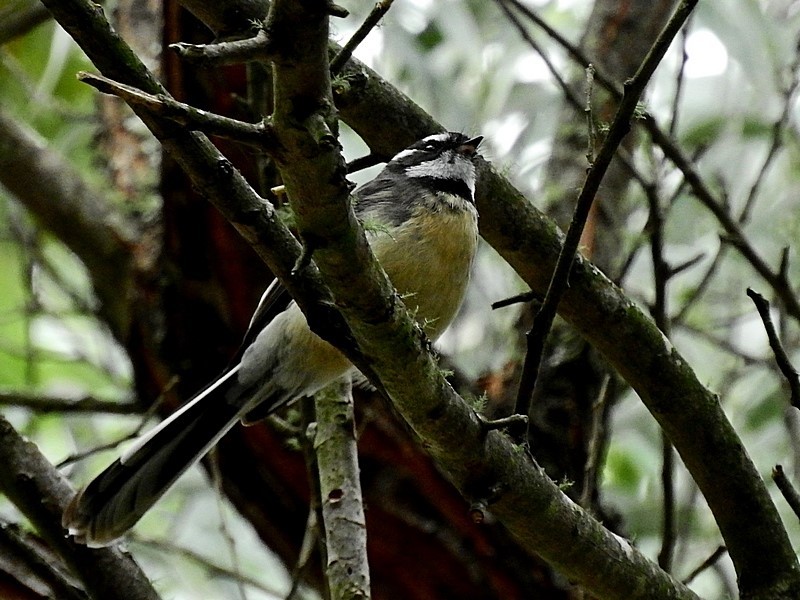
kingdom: Animalia
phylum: Chordata
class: Aves
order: Passeriformes
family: Rhipiduridae
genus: Rhipidura
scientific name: Rhipidura albiscapa
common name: Grey fantail
